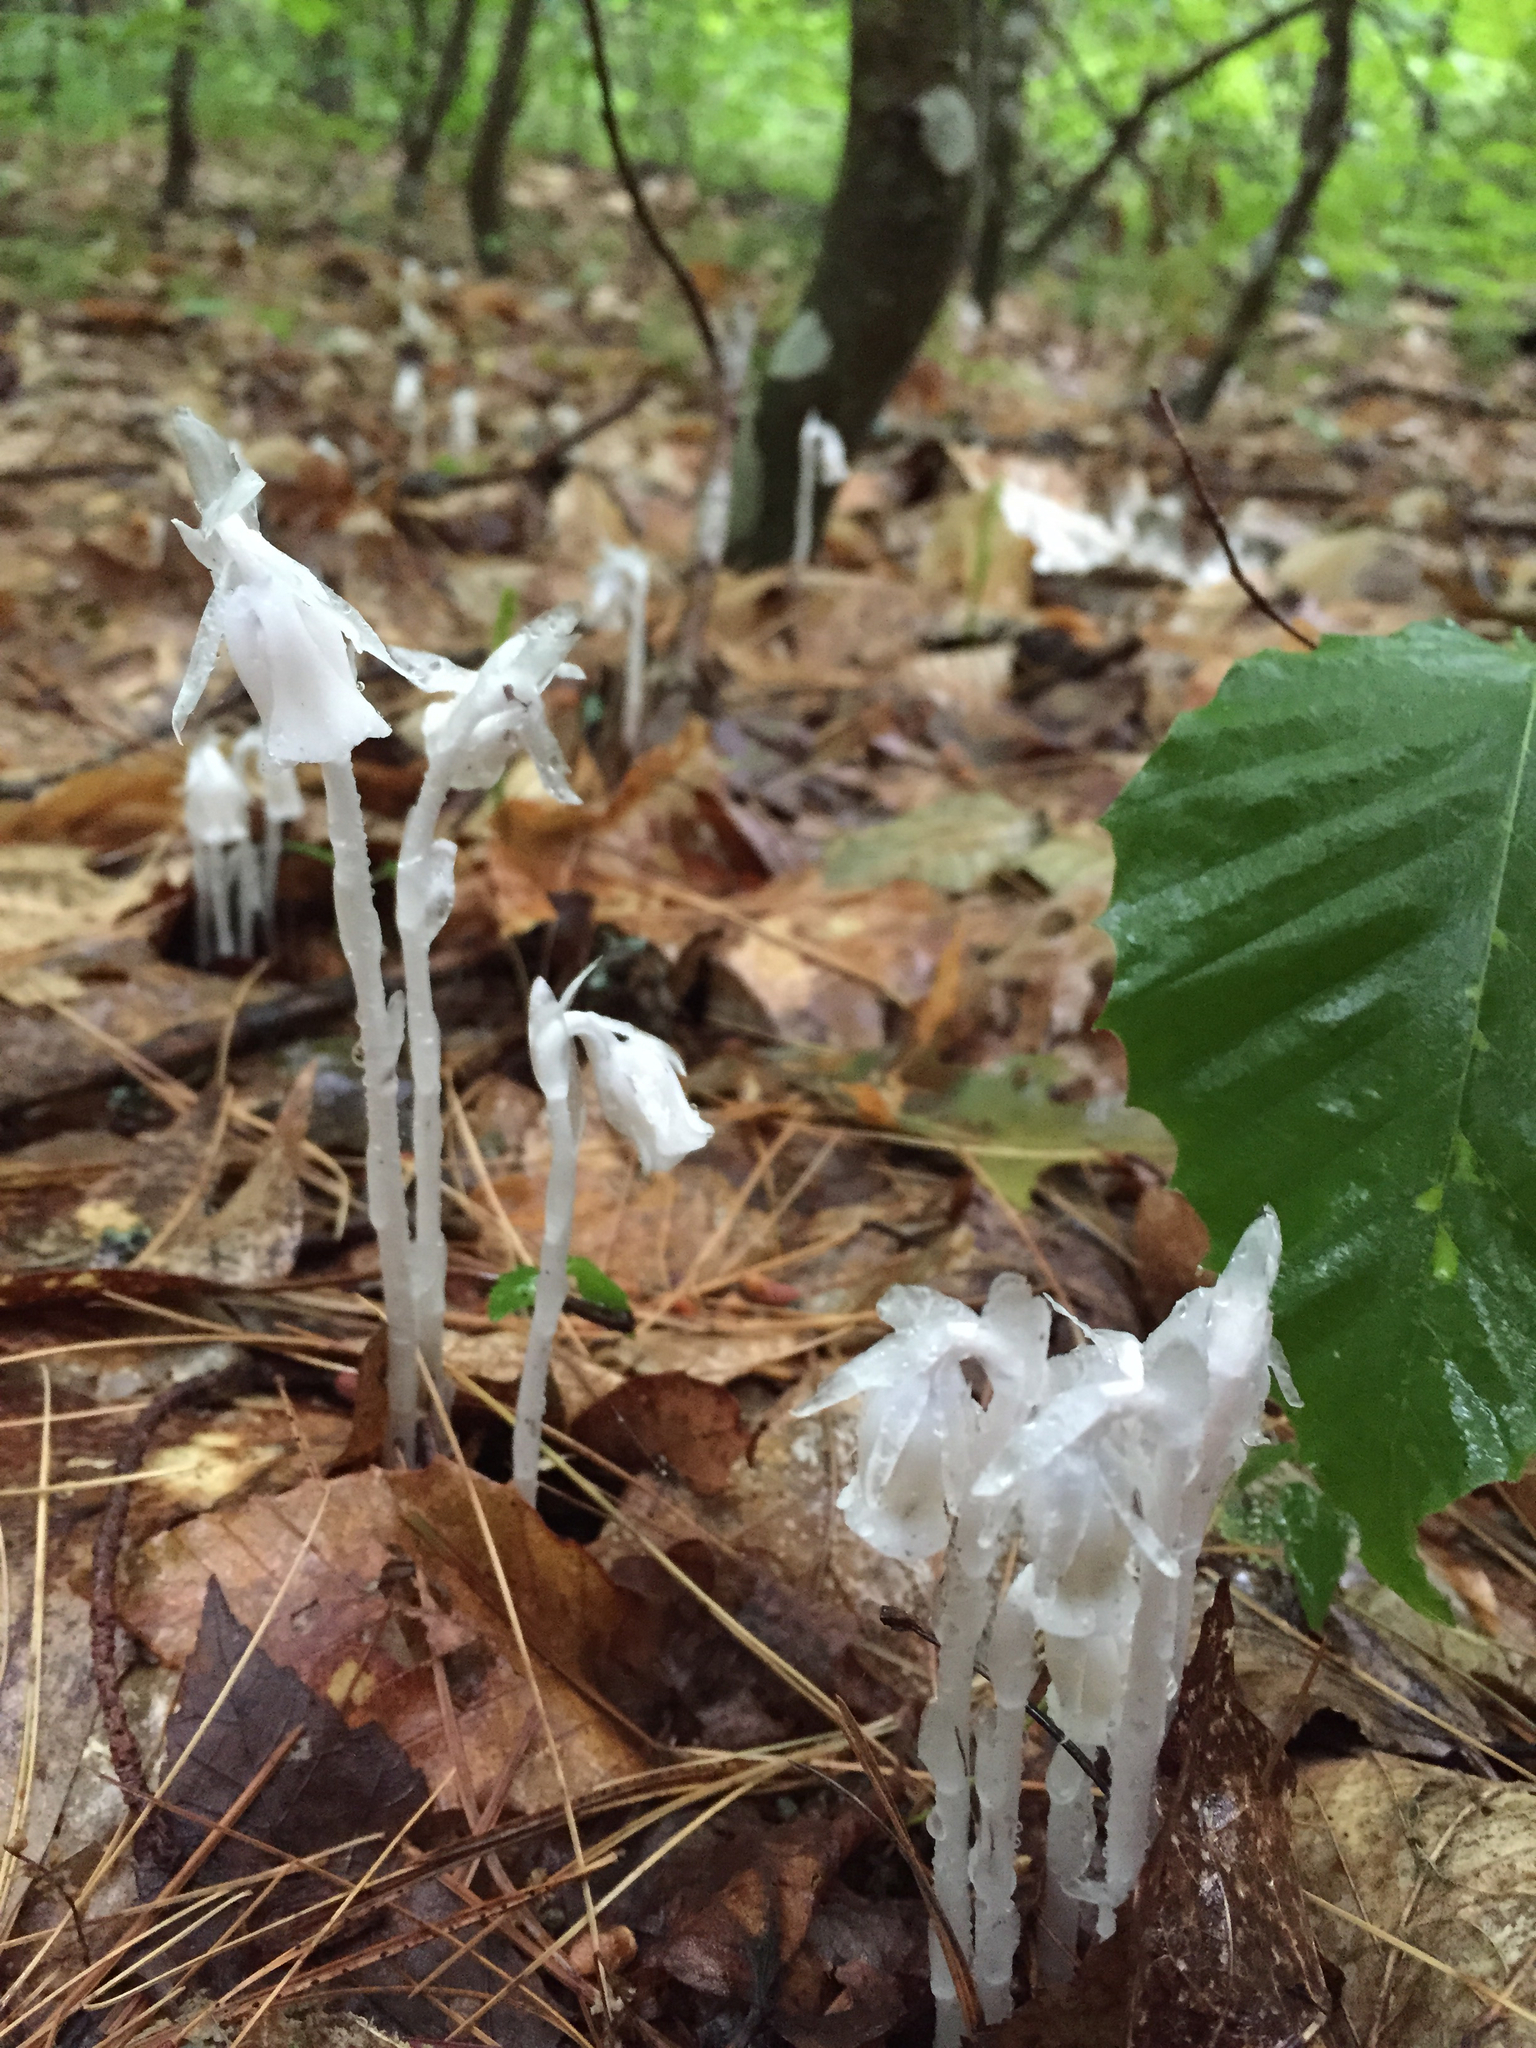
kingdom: Plantae
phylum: Tracheophyta
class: Magnoliopsida
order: Ericales
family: Ericaceae
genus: Monotropa
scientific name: Monotropa uniflora
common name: Convulsion root
